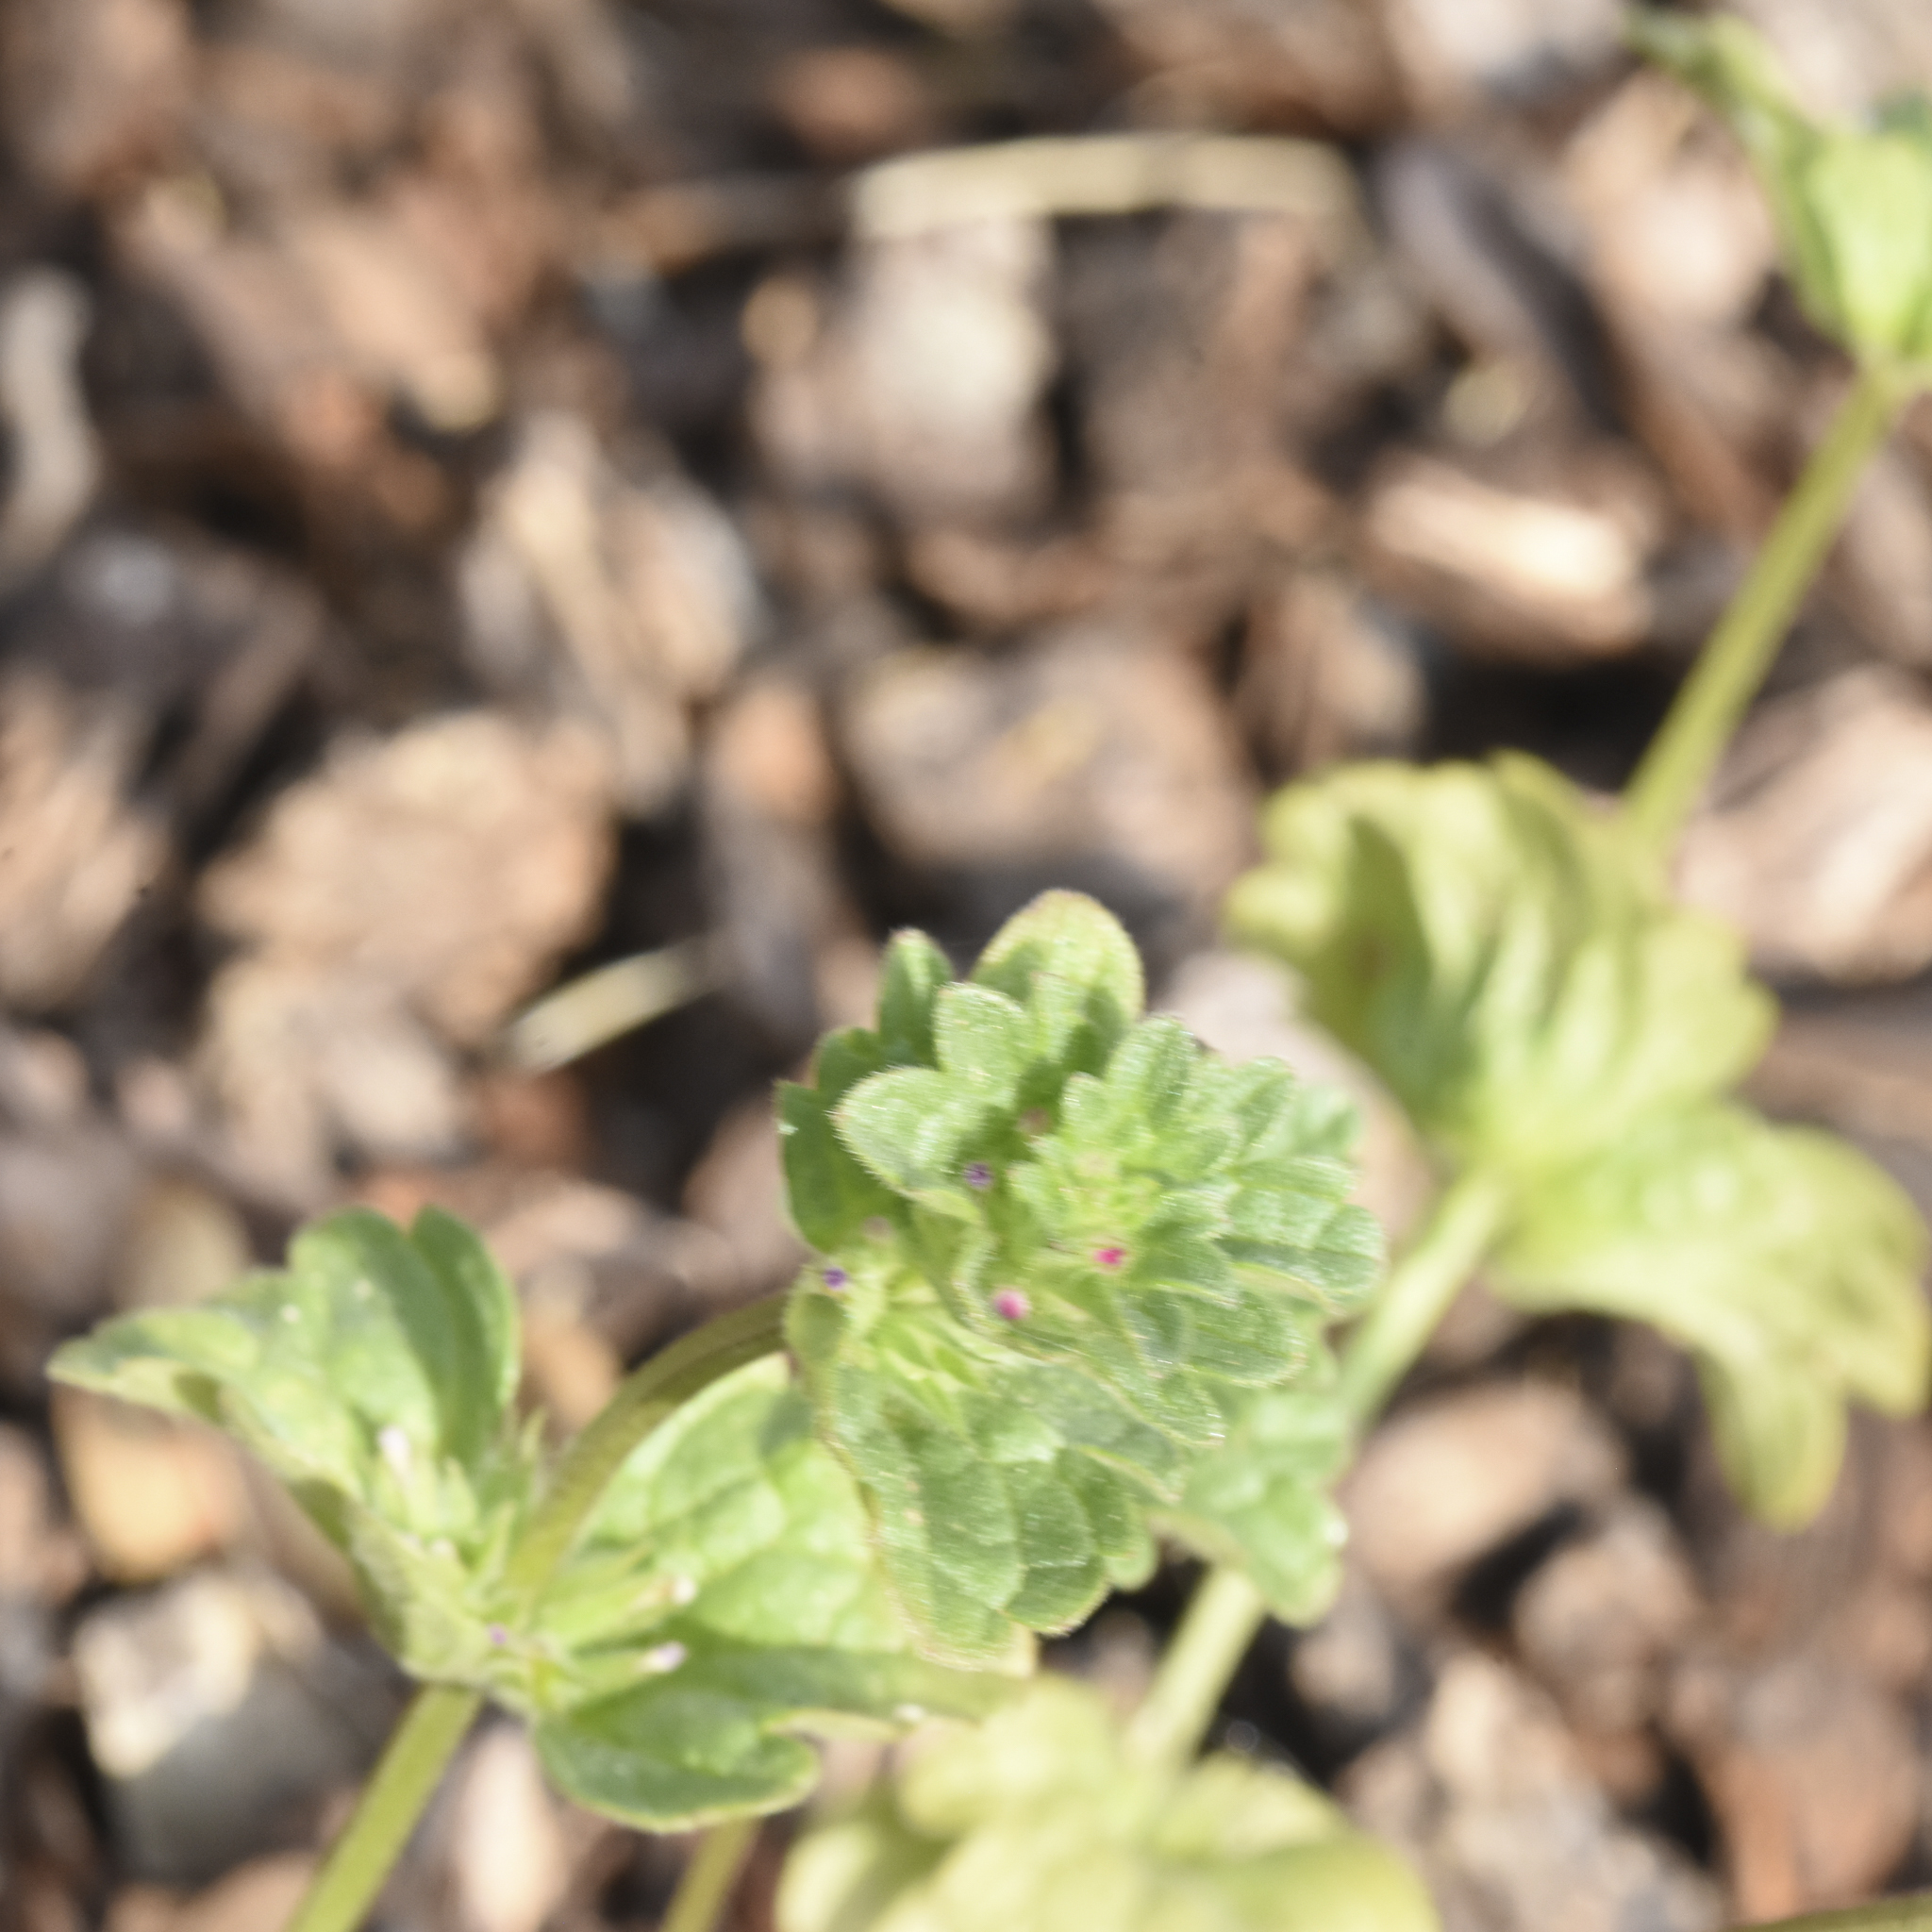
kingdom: Plantae
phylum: Tracheophyta
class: Magnoliopsida
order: Lamiales
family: Lamiaceae
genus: Lamium
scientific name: Lamium amplexicaule
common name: Henbit dead-nettle
